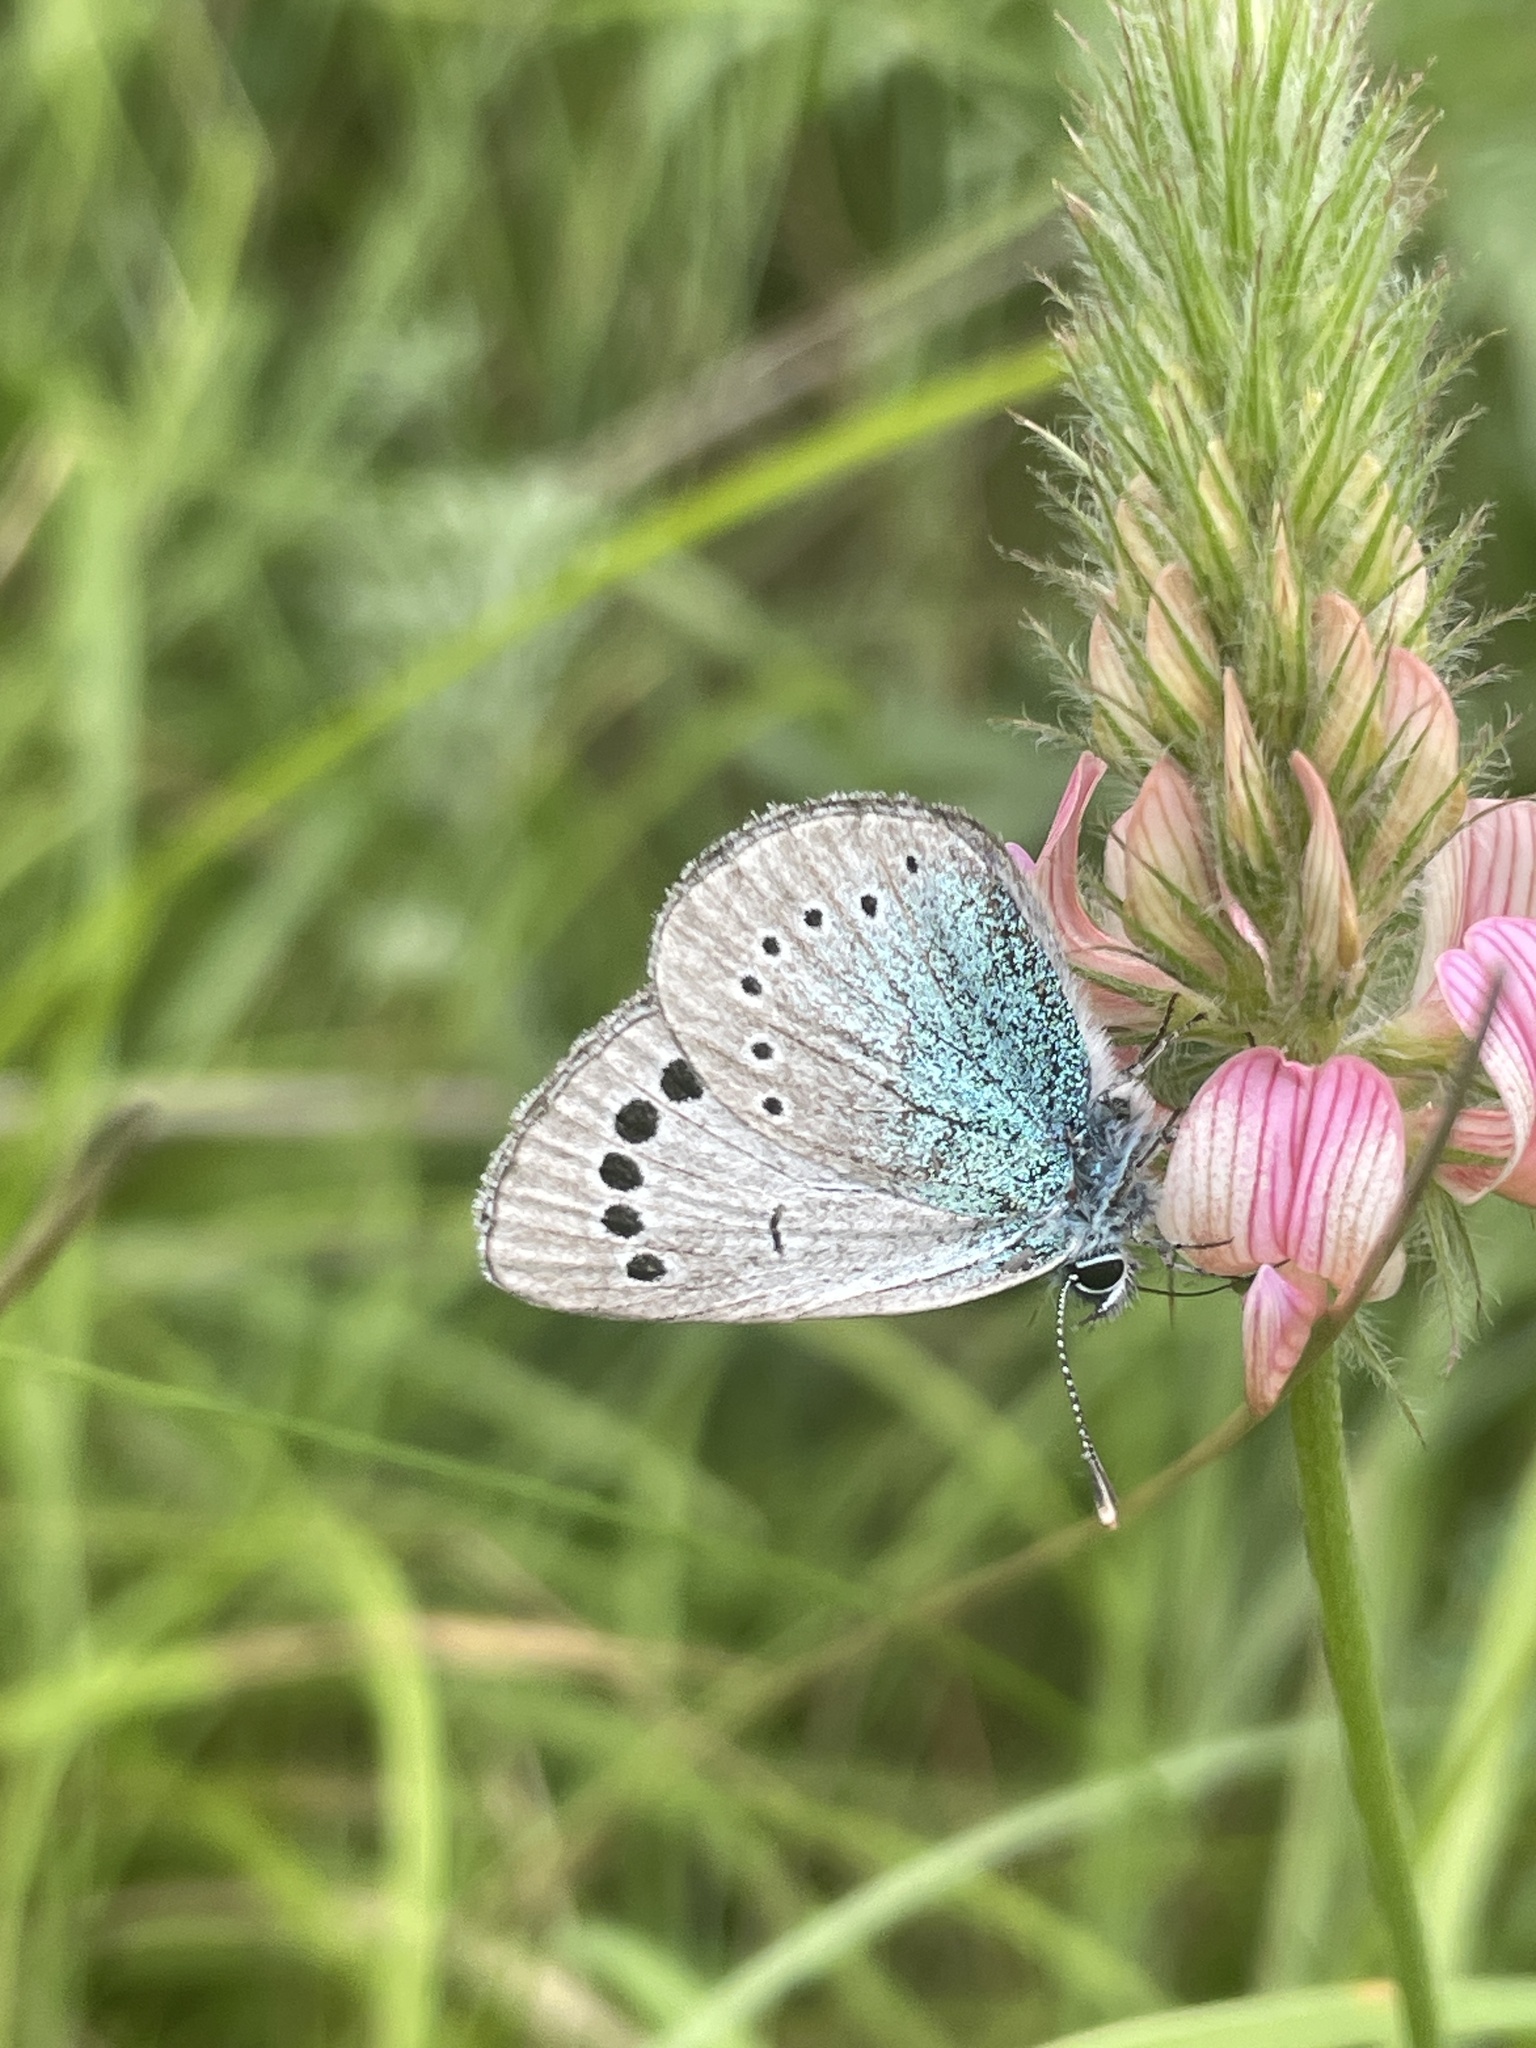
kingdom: Animalia
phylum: Arthropoda
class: Insecta
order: Lepidoptera
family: Lycaenidae
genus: Glaucopsyche
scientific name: Glaucopsyche alexis
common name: Green-underside blue
